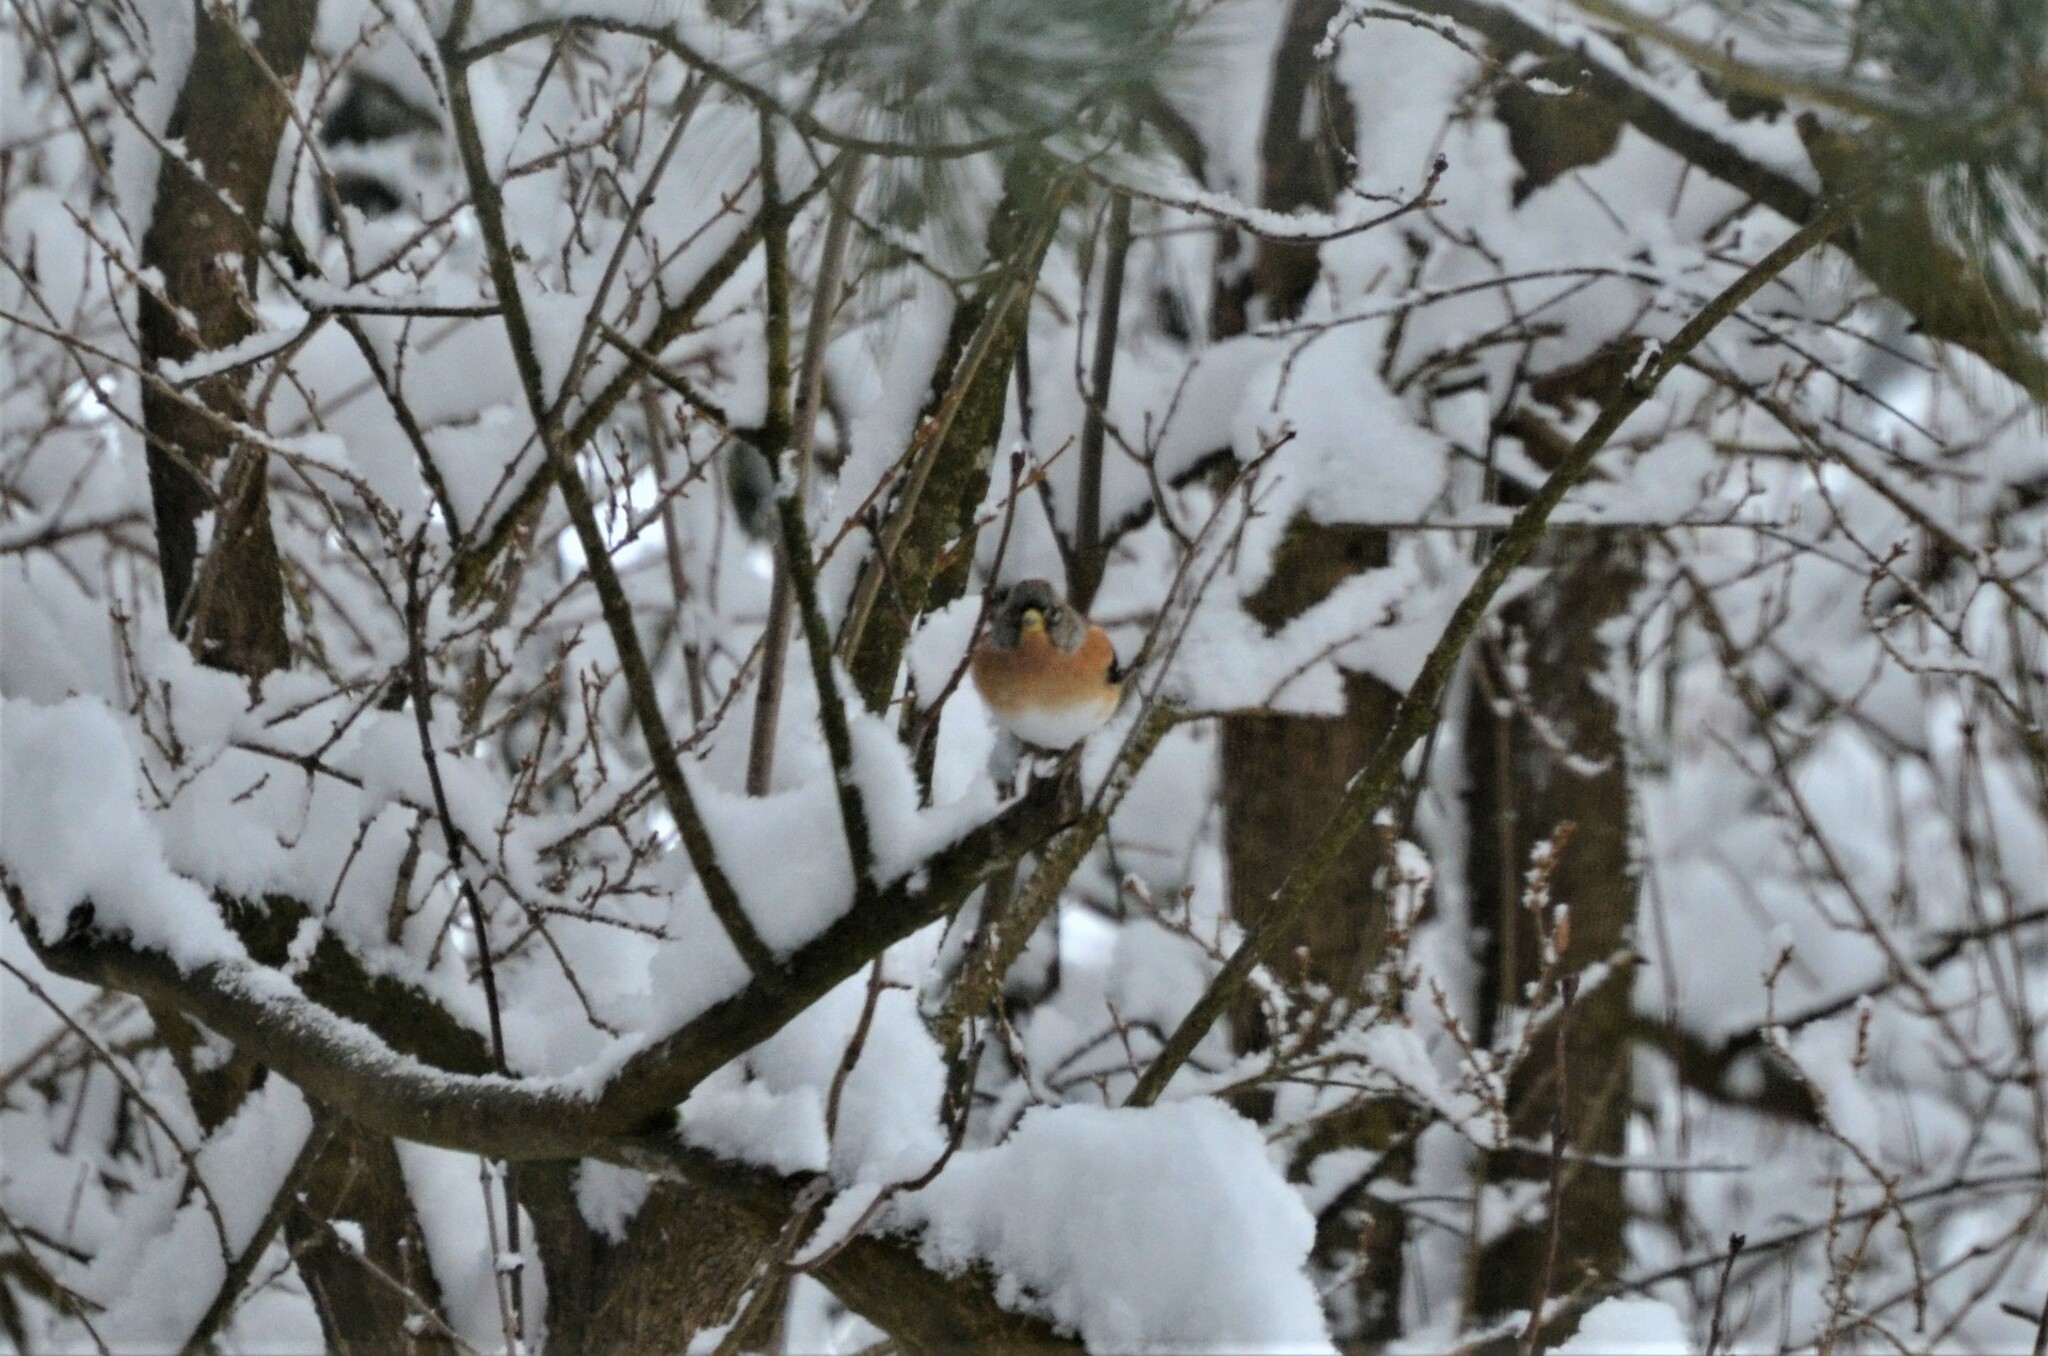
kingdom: Animalia
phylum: Chordata
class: Aves
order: Passeriformes
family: Fringillidae
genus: Fringilla
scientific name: Fringilla montifringilla
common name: Brambling
